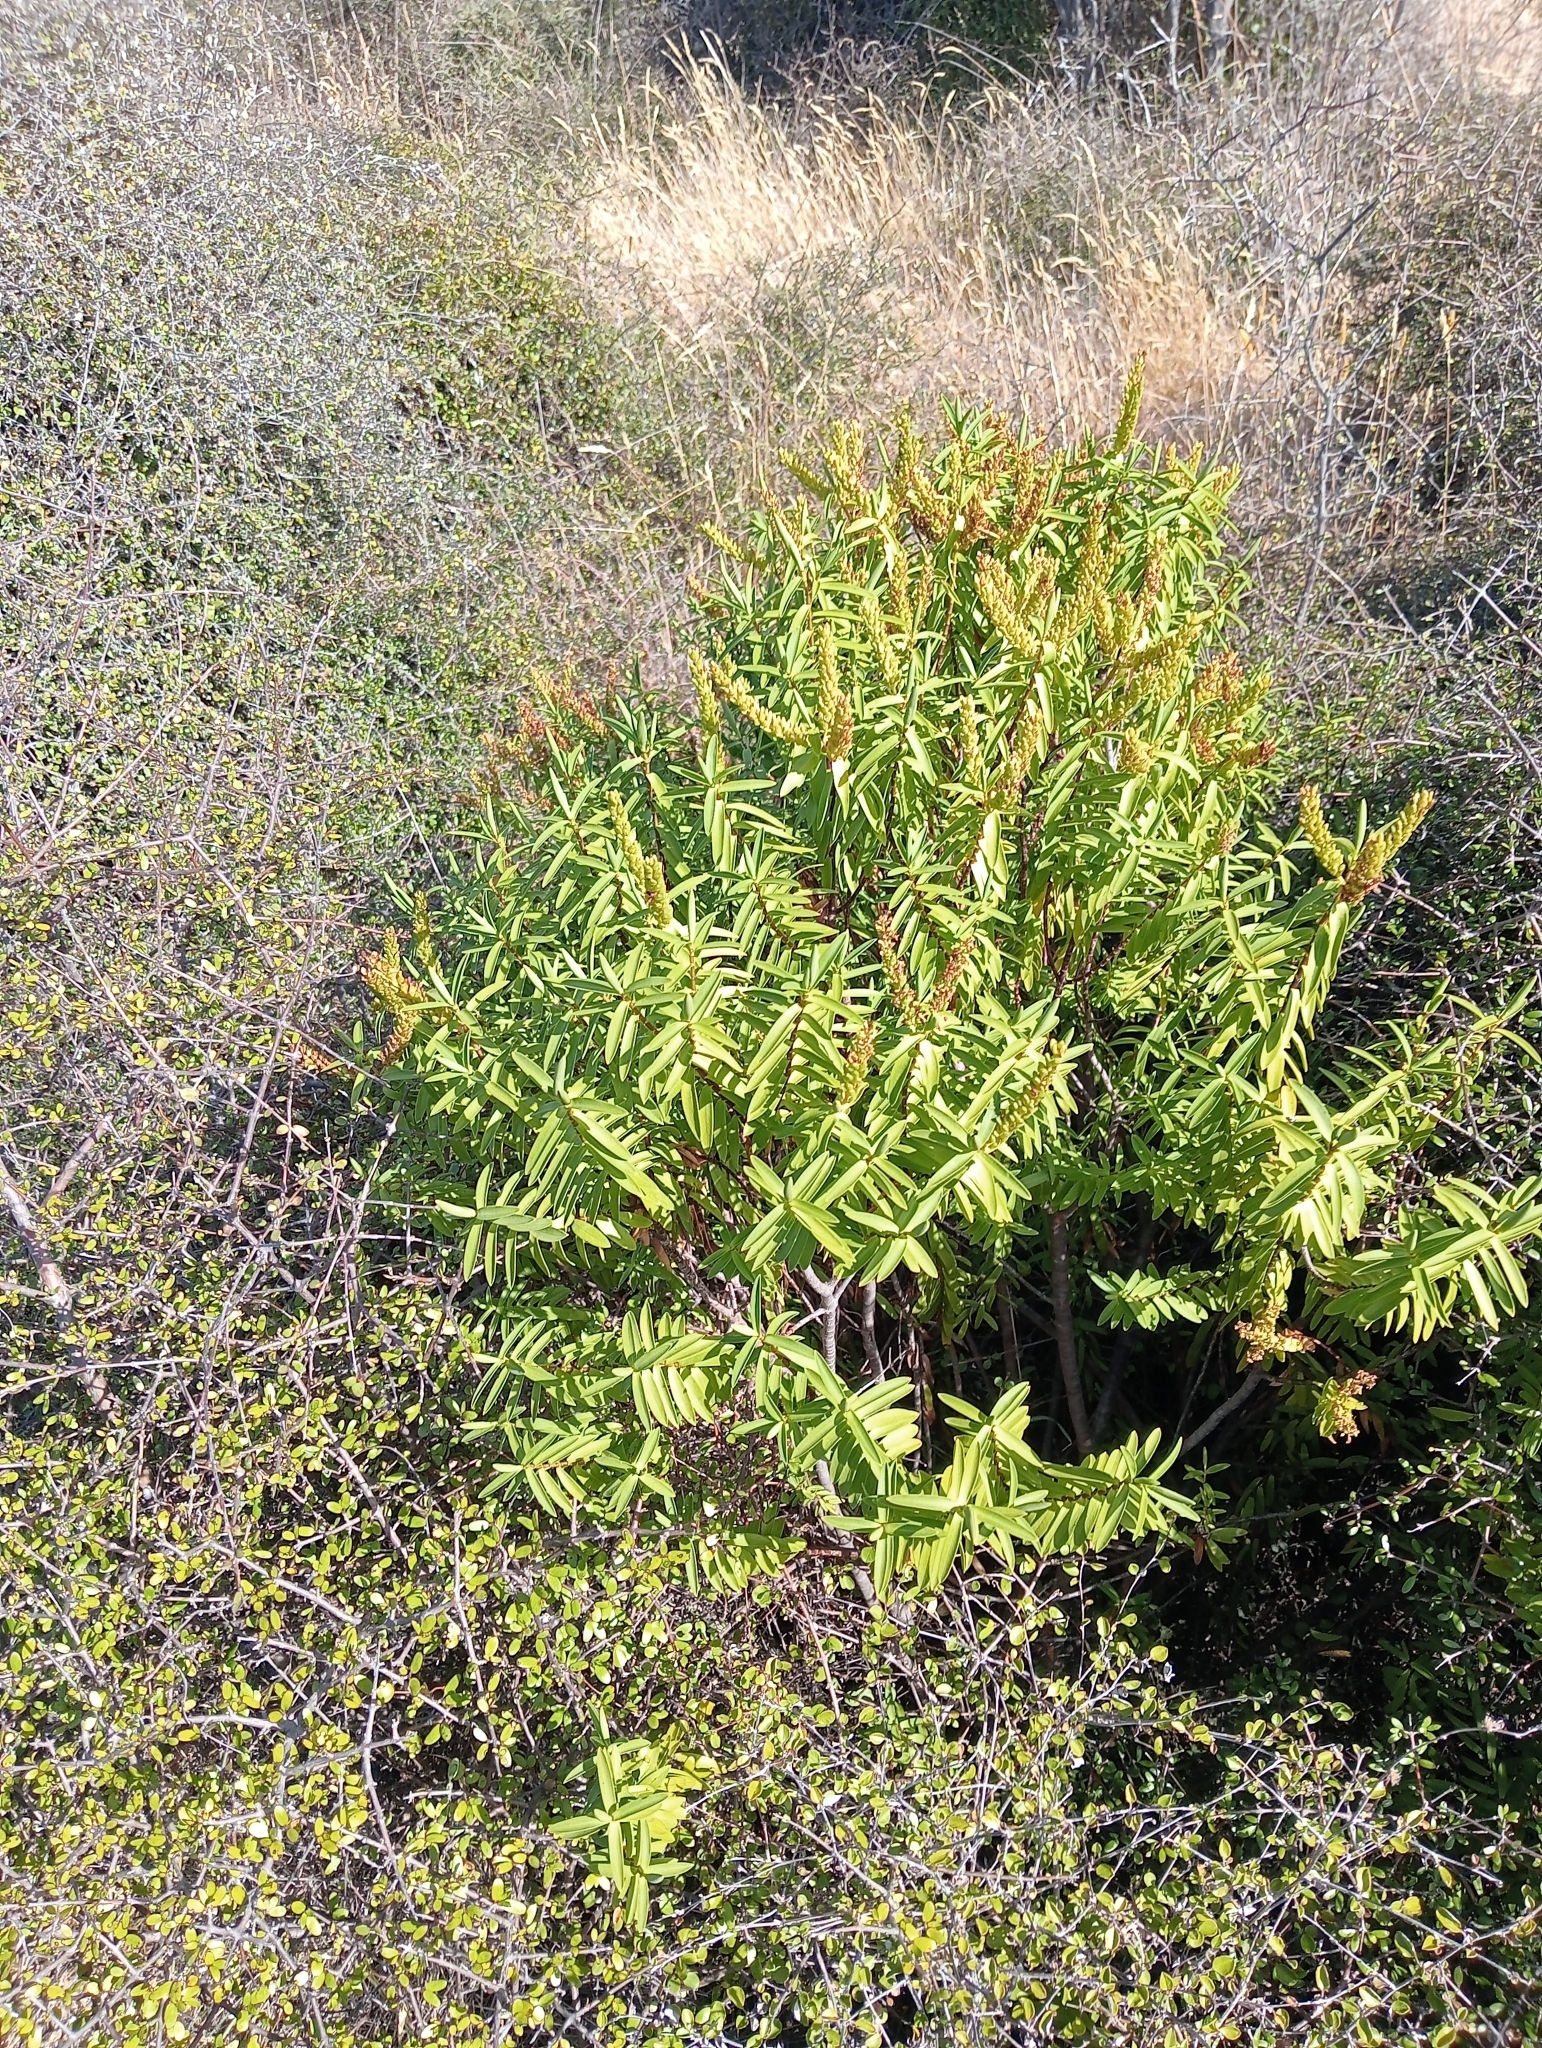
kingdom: Plantae
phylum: Tracheophyta
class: Magnoliopsida
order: Lamiales
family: Plantaginaceae
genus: Veronica
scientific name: Veronica strictissima
